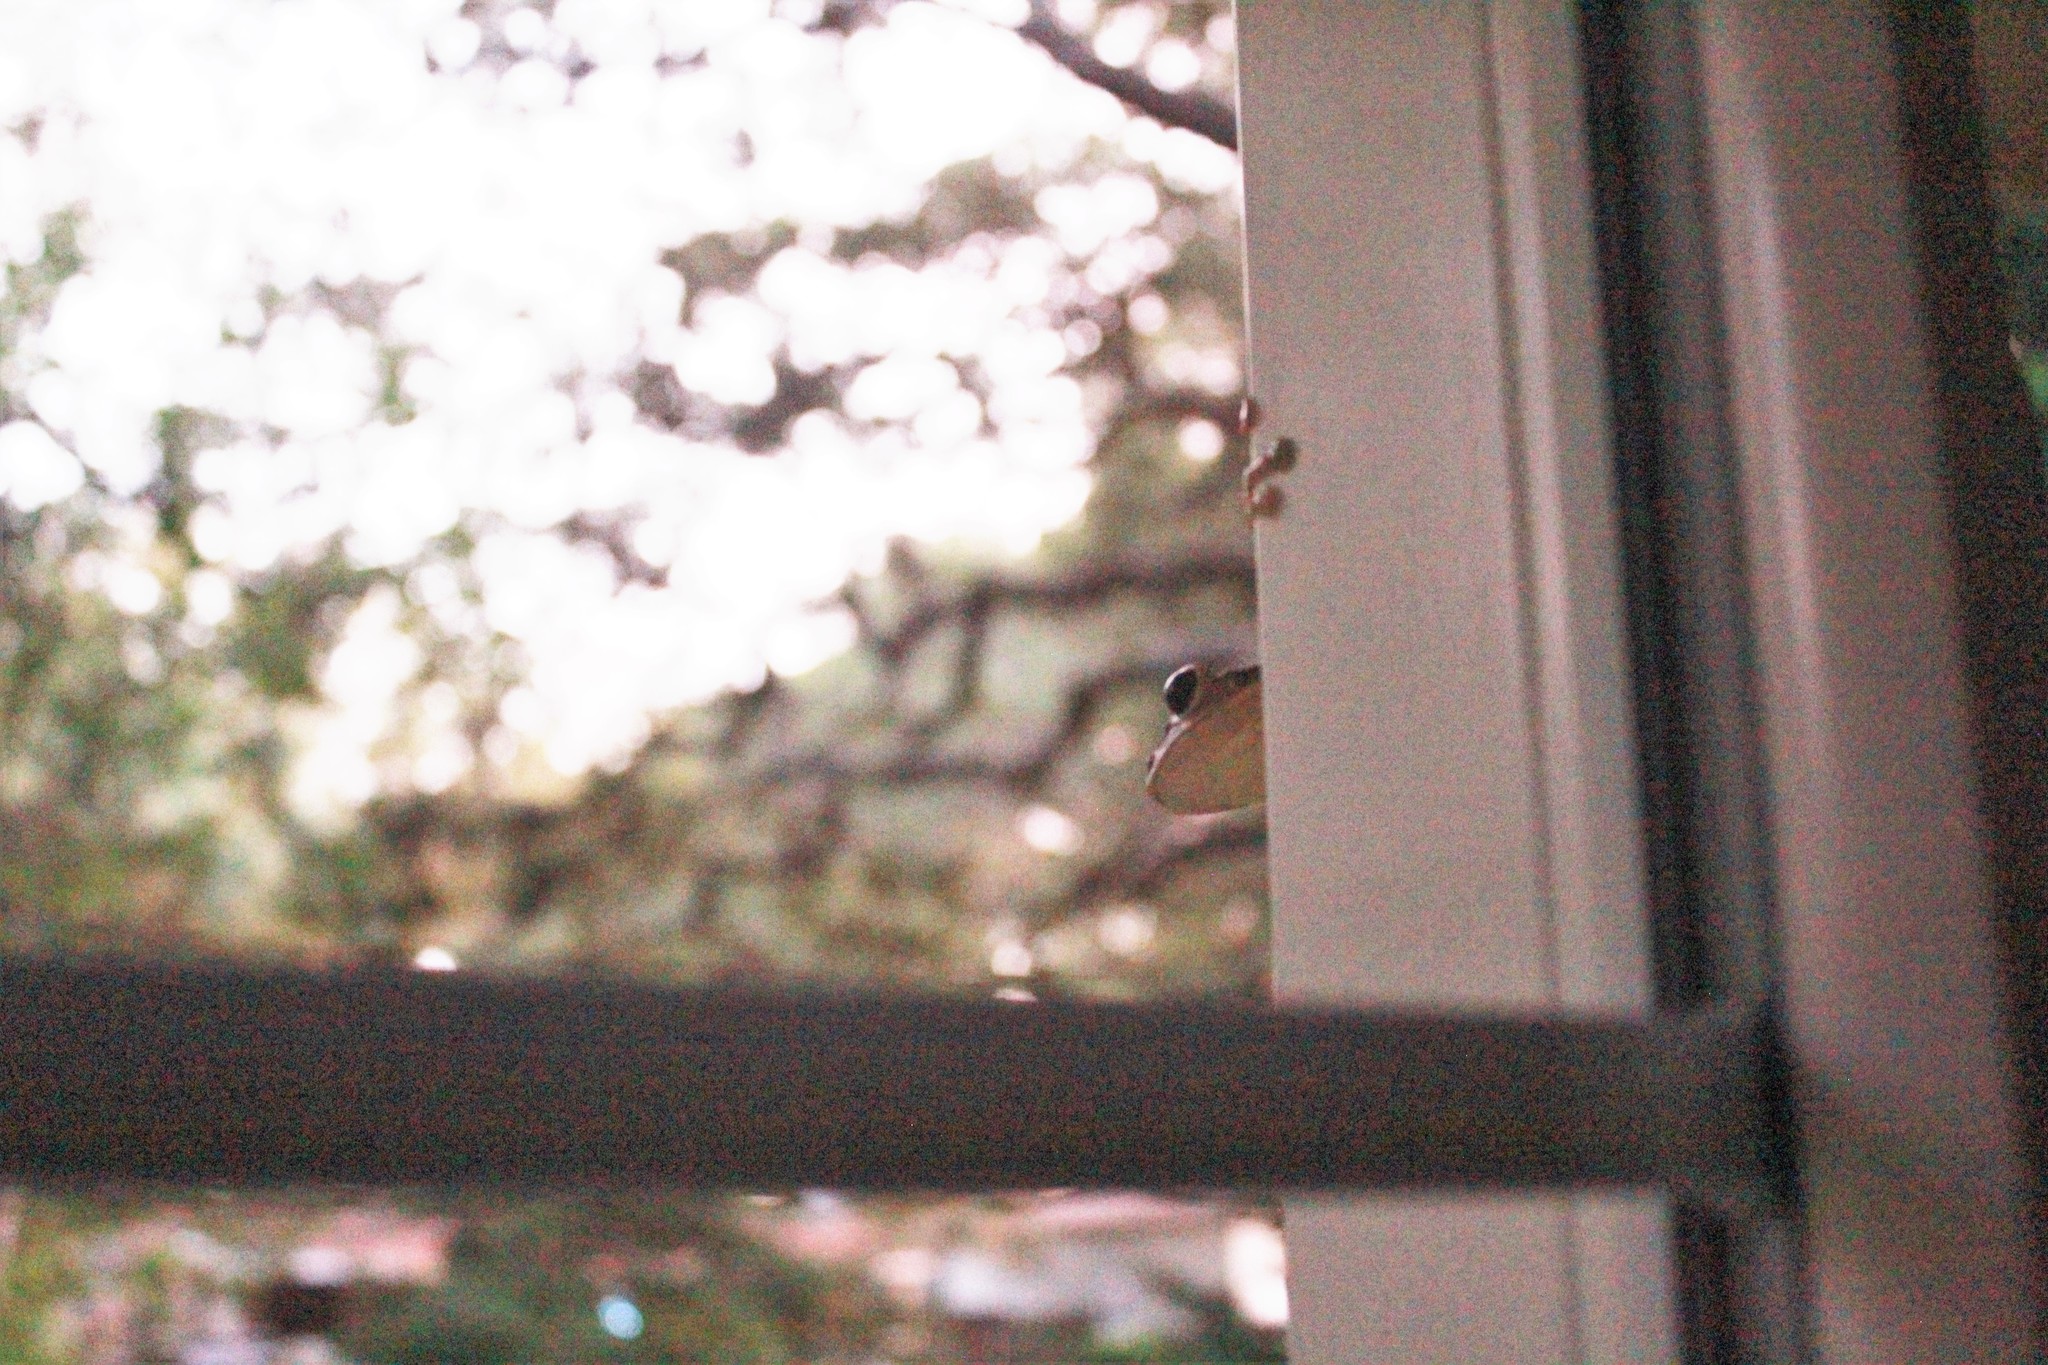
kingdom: Animalia
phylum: Chordata
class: Amphibia
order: Anura
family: Hylidae
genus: Osteopilus
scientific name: Osteopilus septentrionalis
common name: Cuban treefrog
